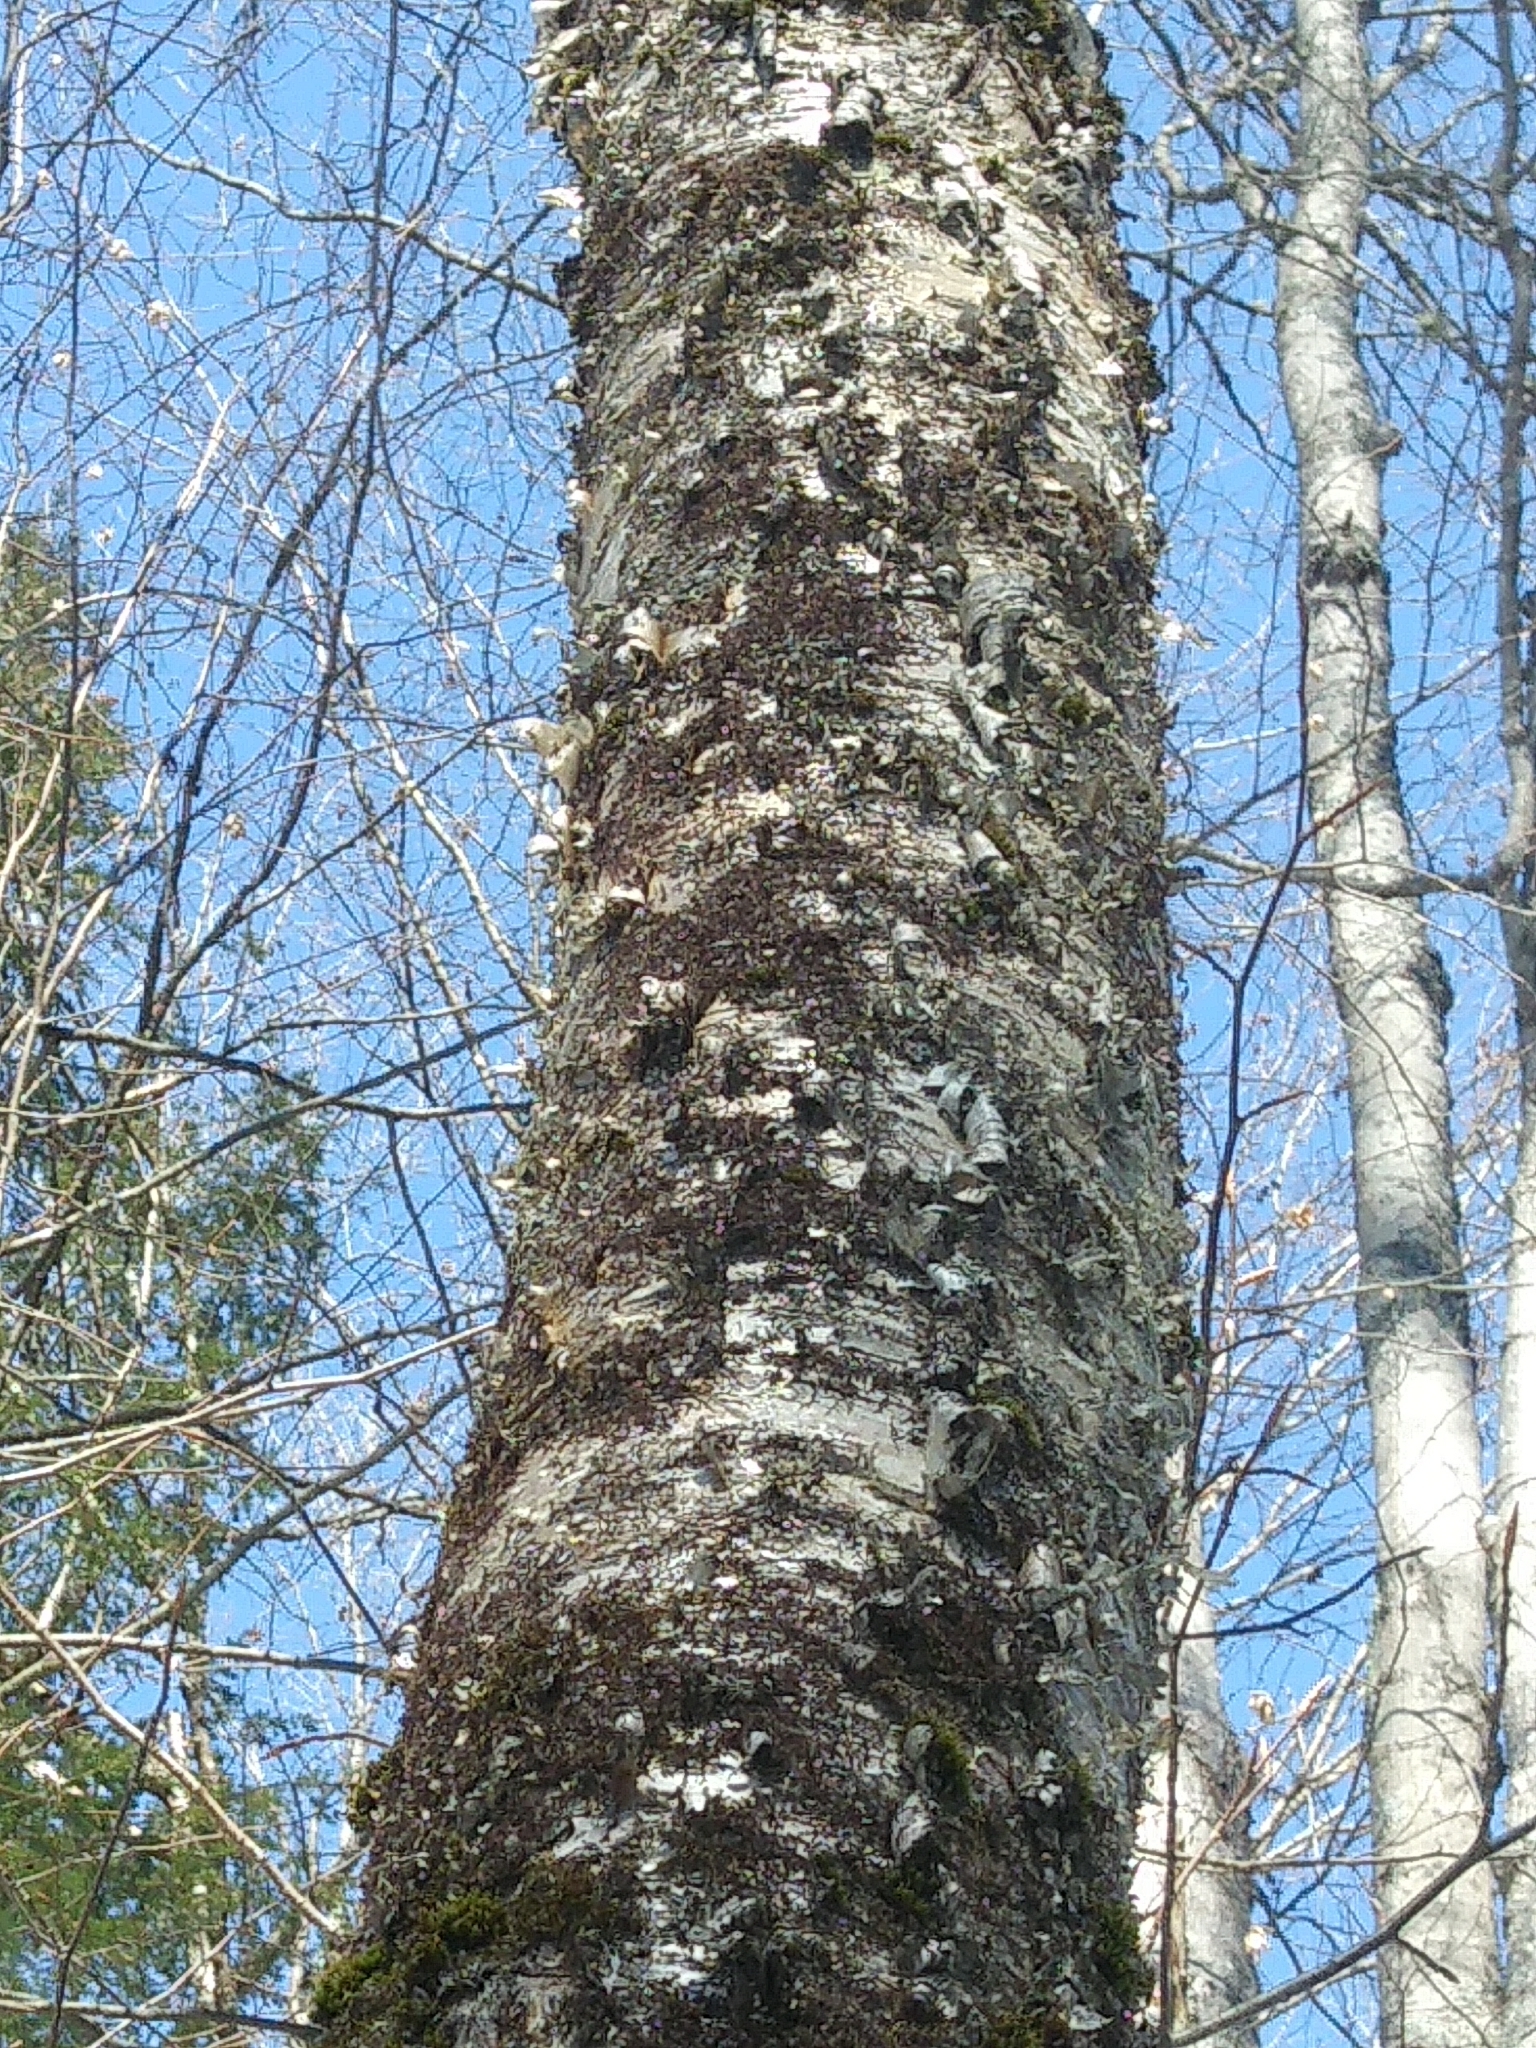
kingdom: Plantae
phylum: Tracheophyta
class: Magnoliopsida
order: Fagales
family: Betulaceae
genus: Betula
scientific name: Betula alleghaniensis
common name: Yellow birch
